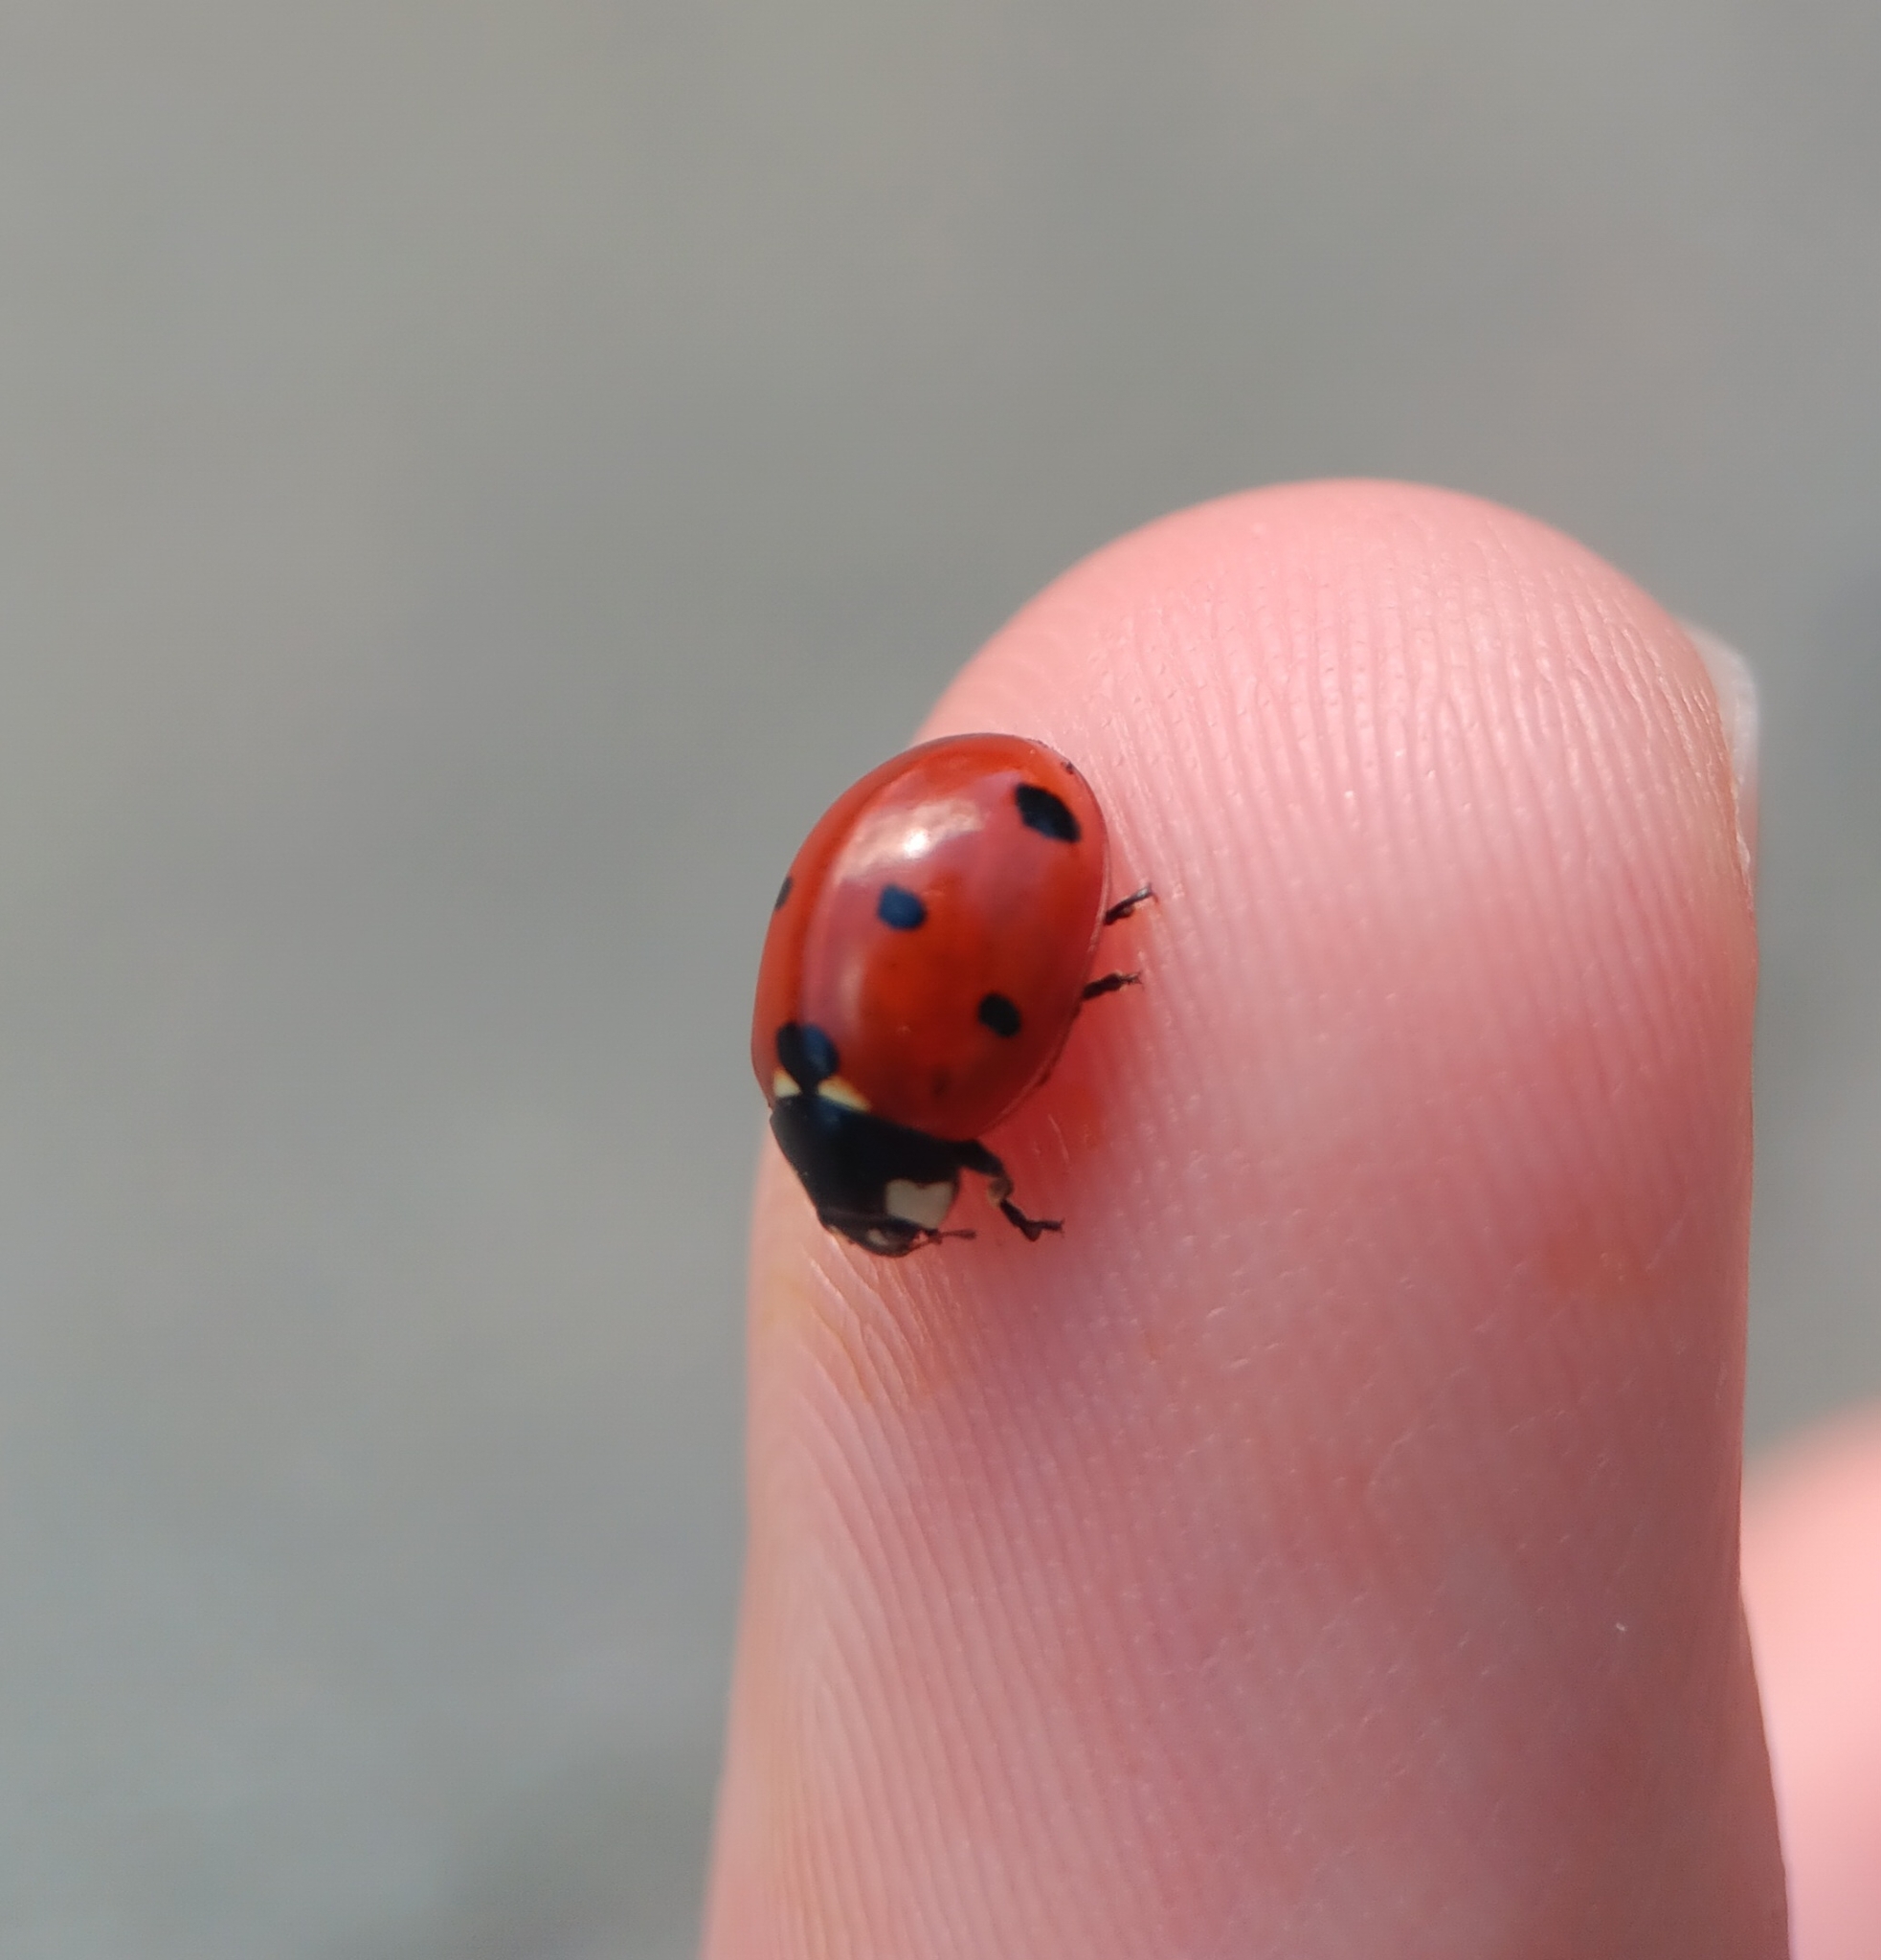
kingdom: Animalia
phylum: Arthropoda
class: Insecta
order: Coleoptera
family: Coccinellidae
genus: Coccinella
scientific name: Coccinella septempunctata
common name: Sevenspotted lady beetle
